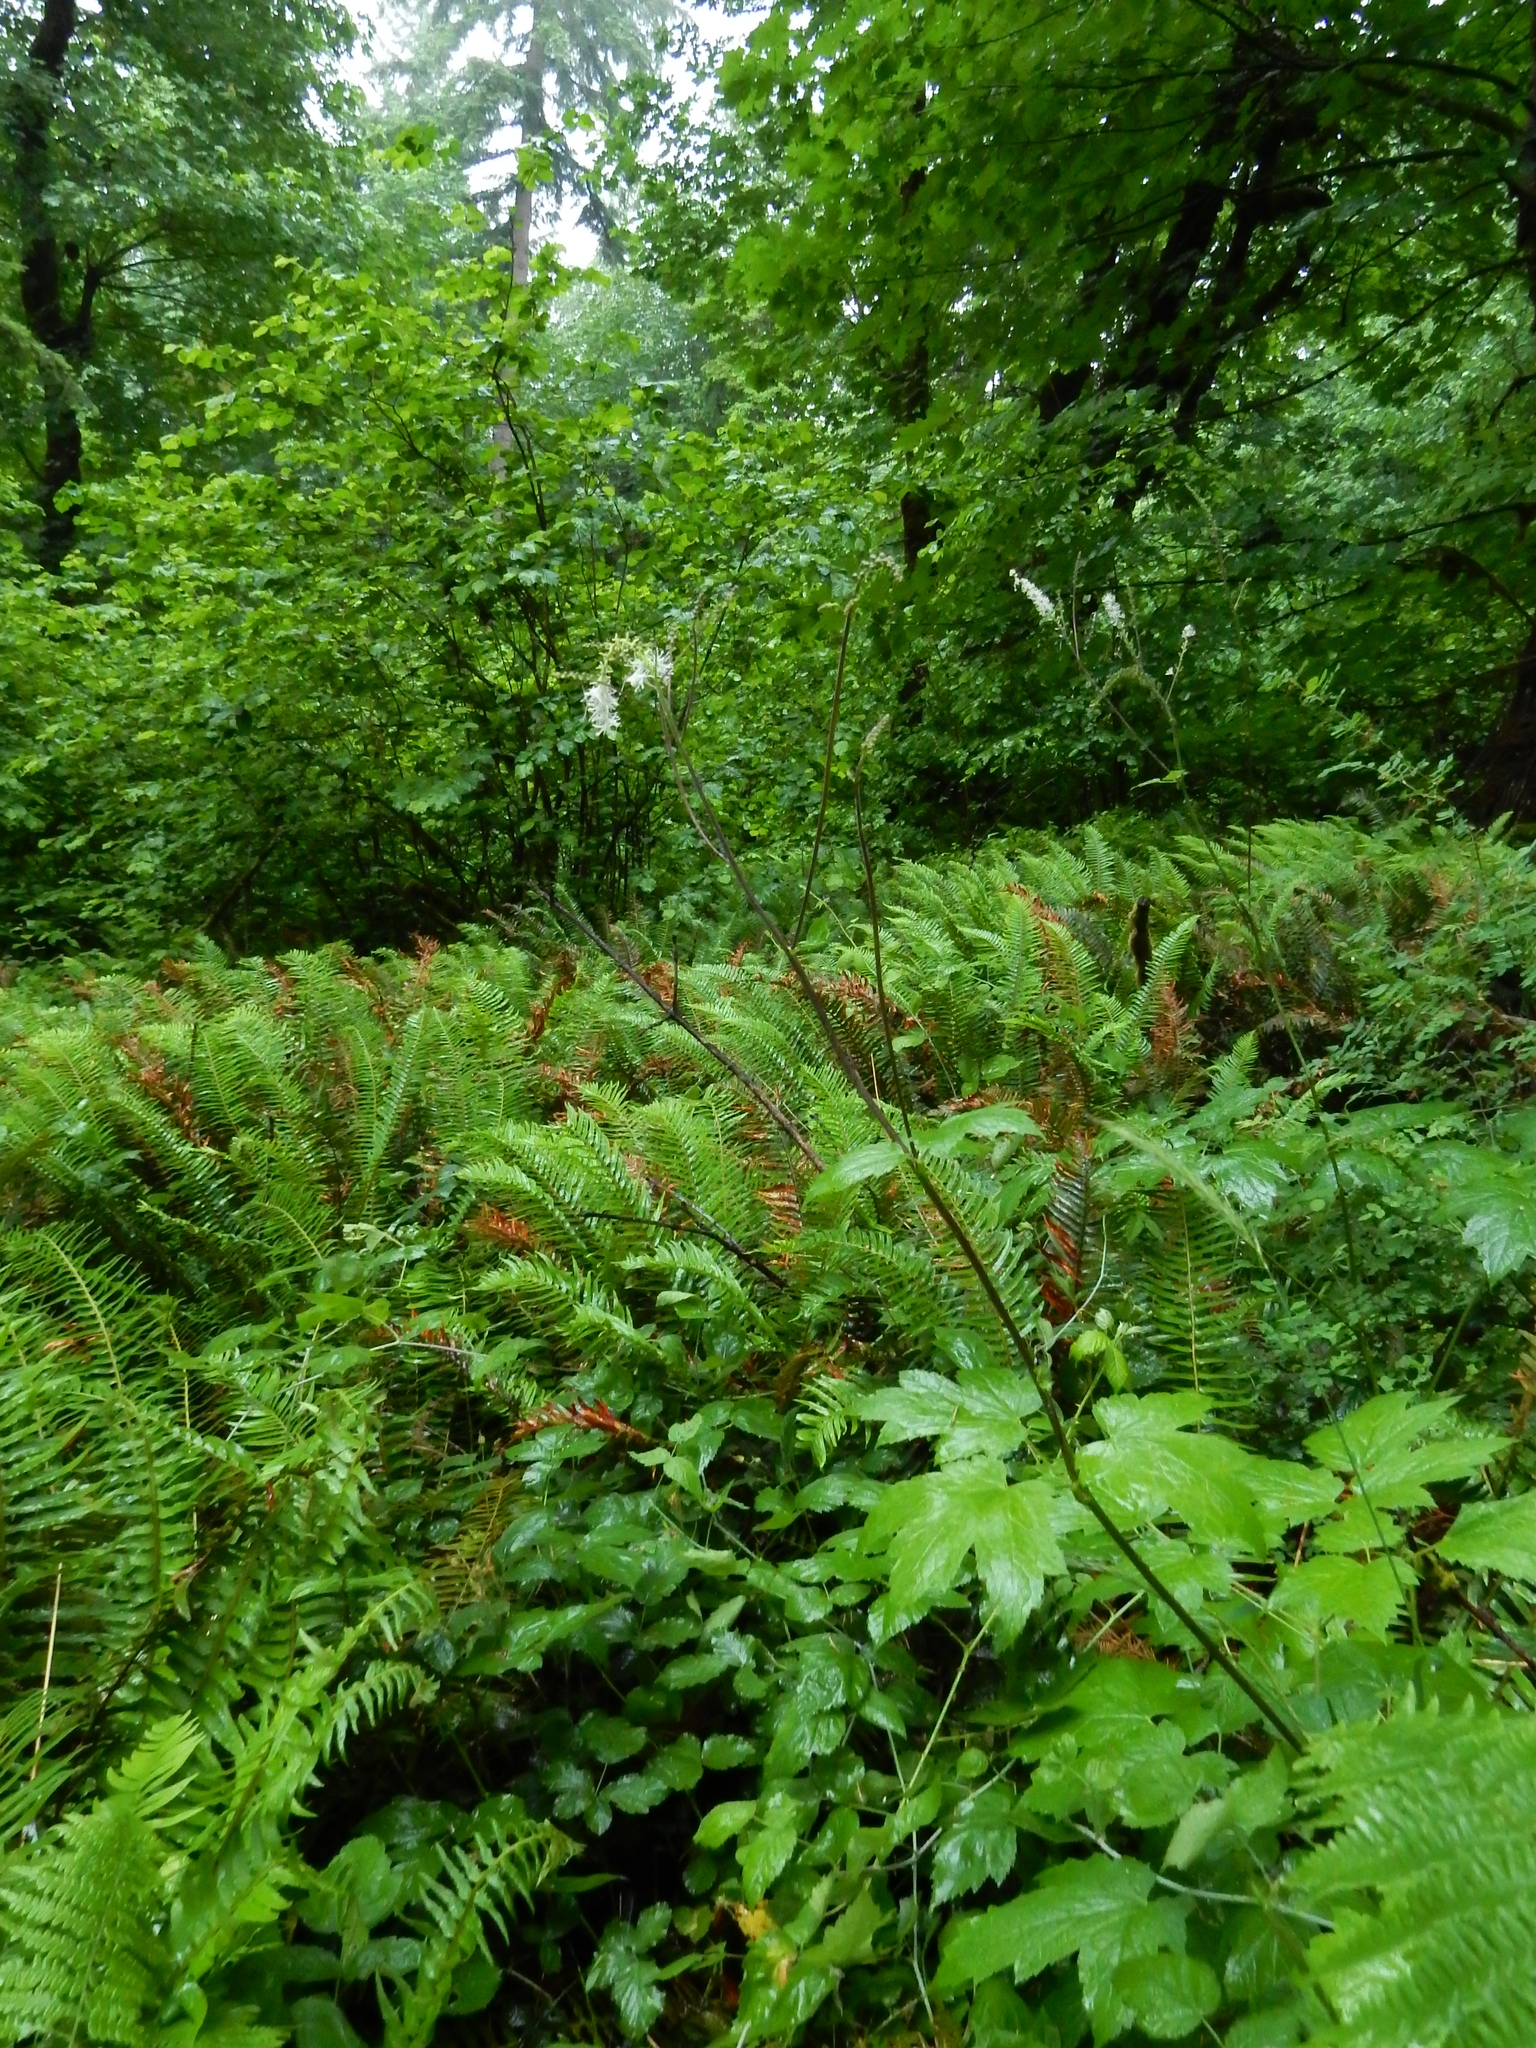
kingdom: Plantae
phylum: Tracheophyta
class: Magnoliopsida
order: Ranunculales
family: Ranunculaceae
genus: Actaea
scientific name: Actaea elata
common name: Tall bugbane
